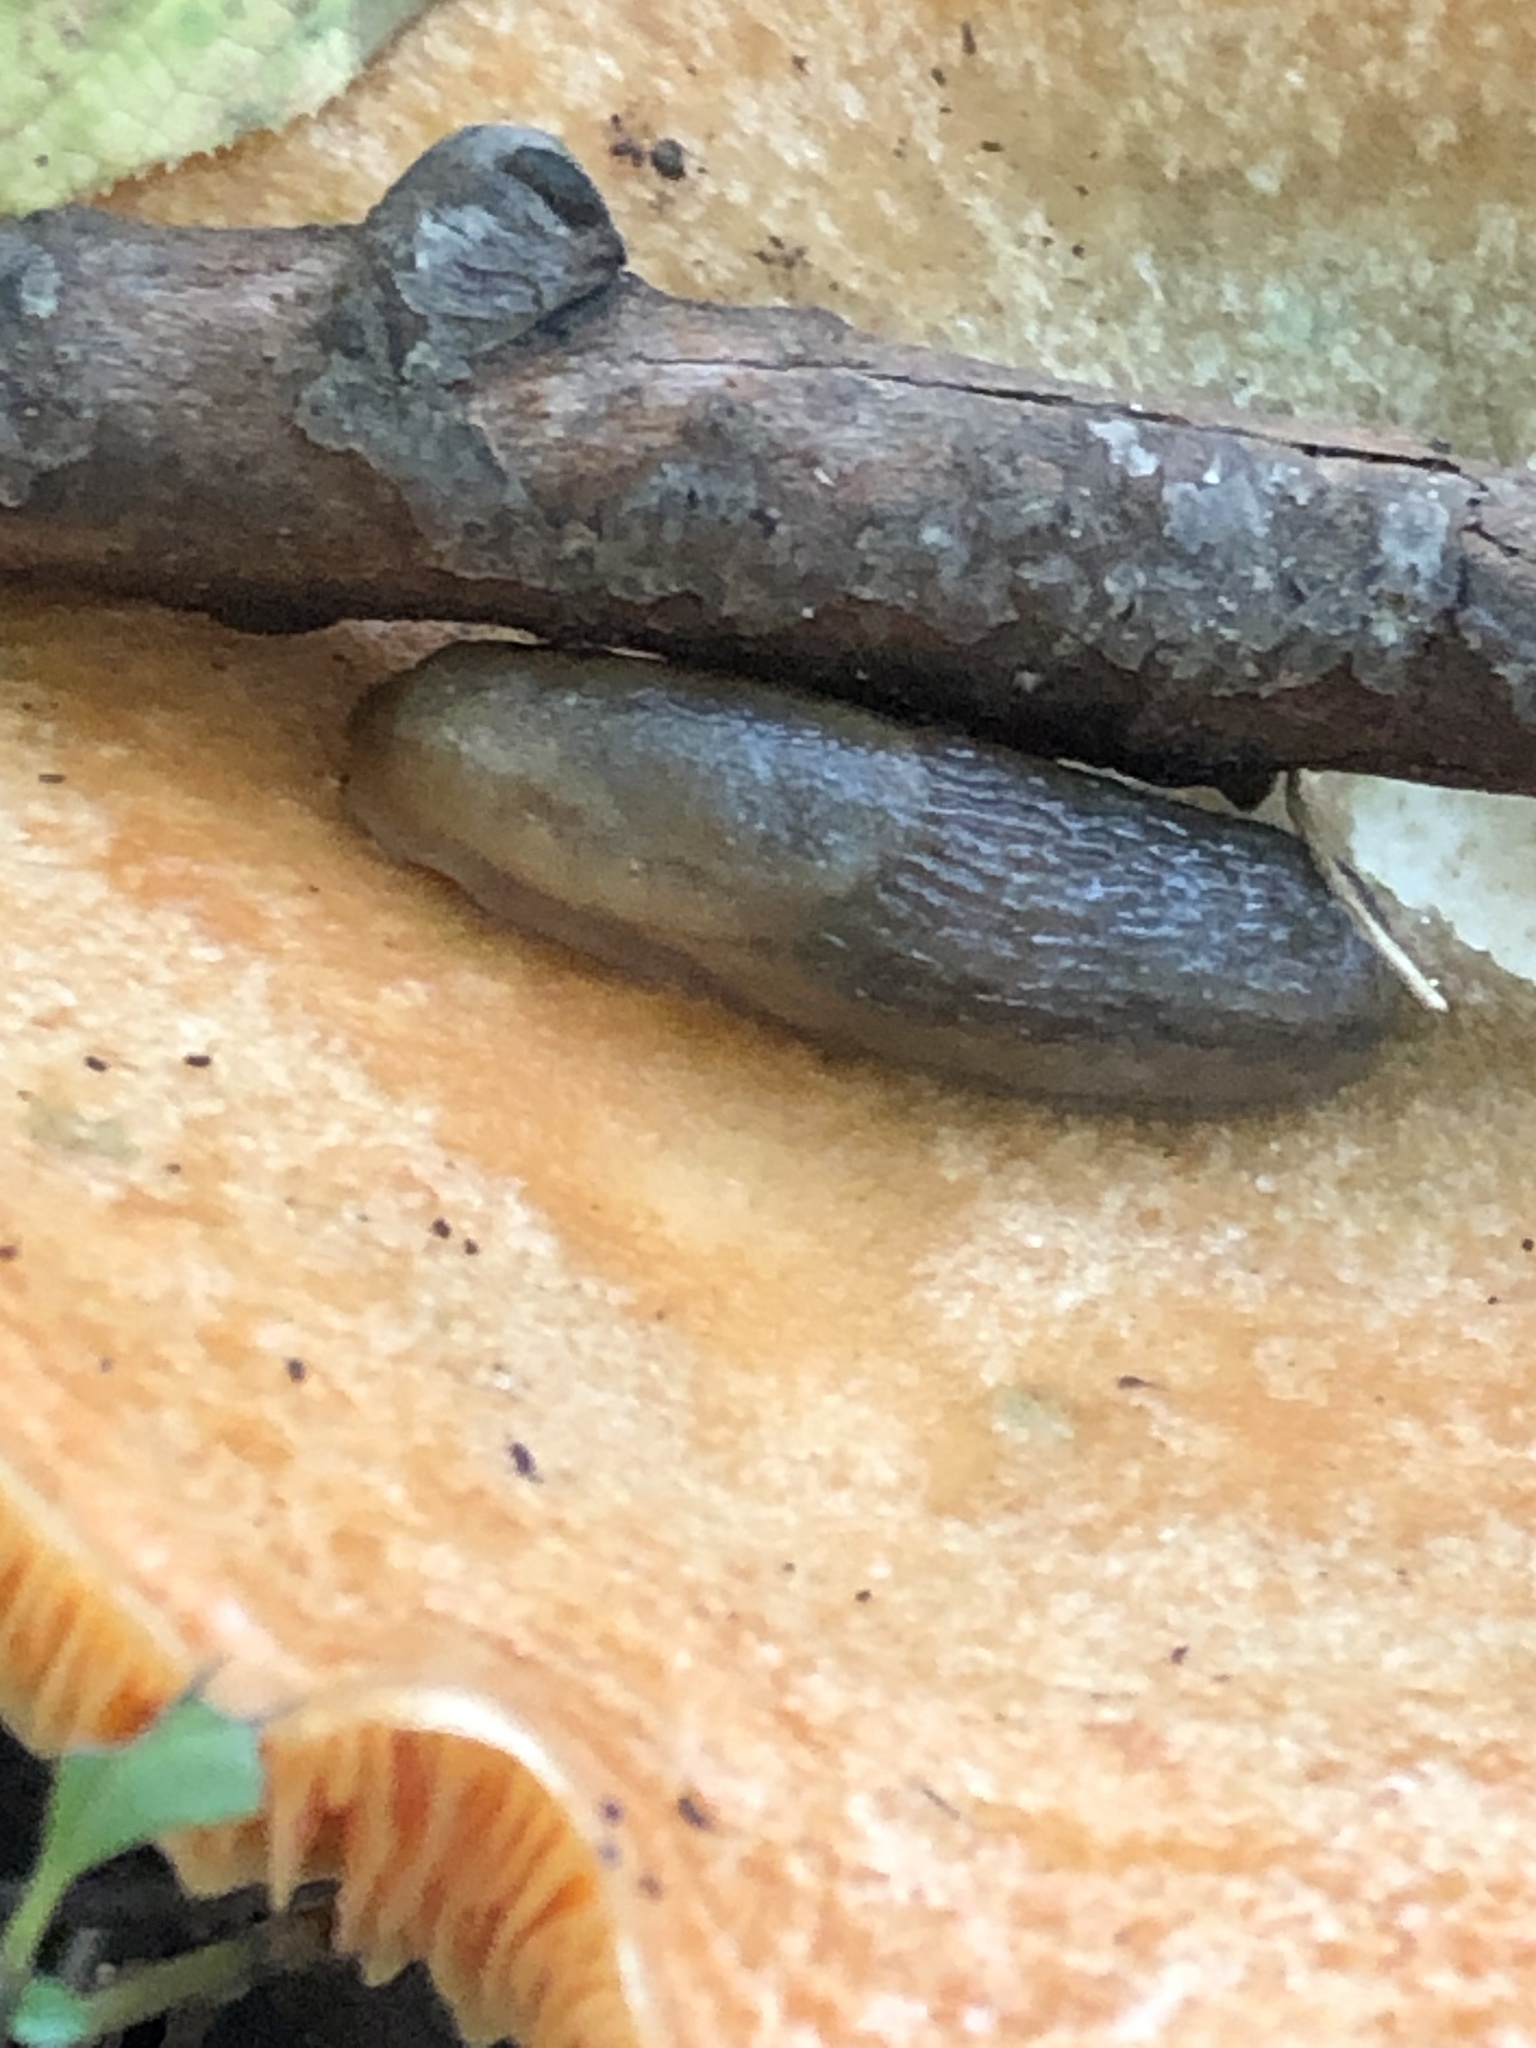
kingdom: Animalia
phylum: Mollusca
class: Gastropoda
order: Stylommatophora
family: Arionidae
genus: Arion
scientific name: Arion subfuscus
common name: Dusky arion
